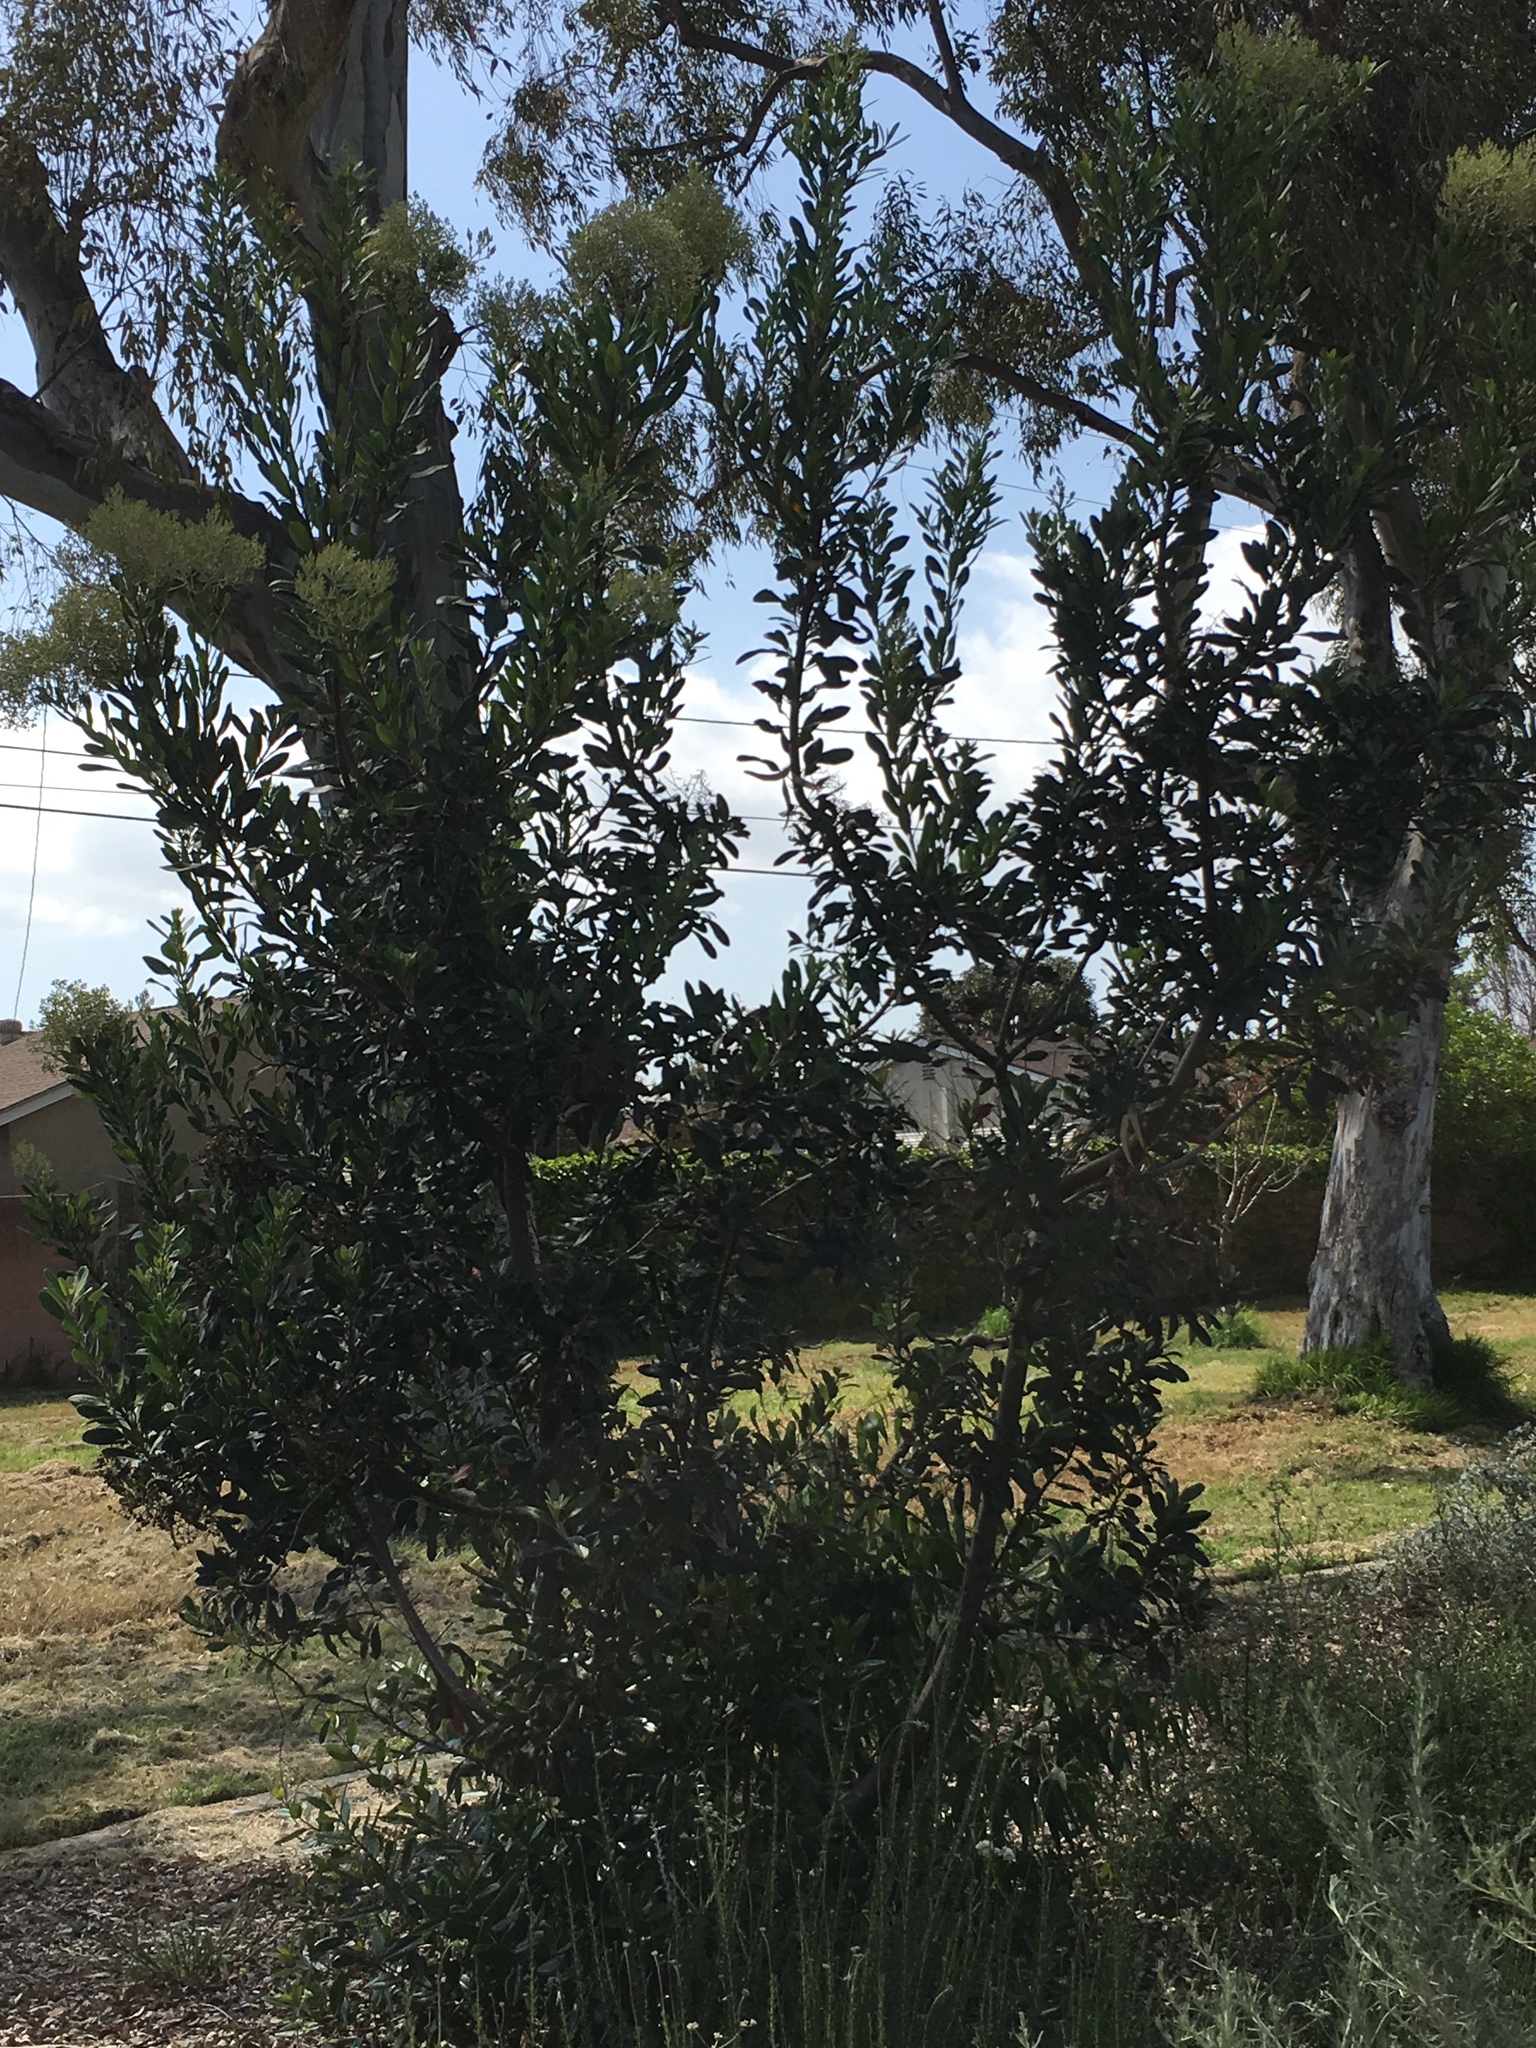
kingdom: Plantae
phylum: Tracheophyta
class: Magnoliopsida
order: Rosales
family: Rosaceae
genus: Heteromeles
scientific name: Heteromeles arbutifolia
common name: California-holly
